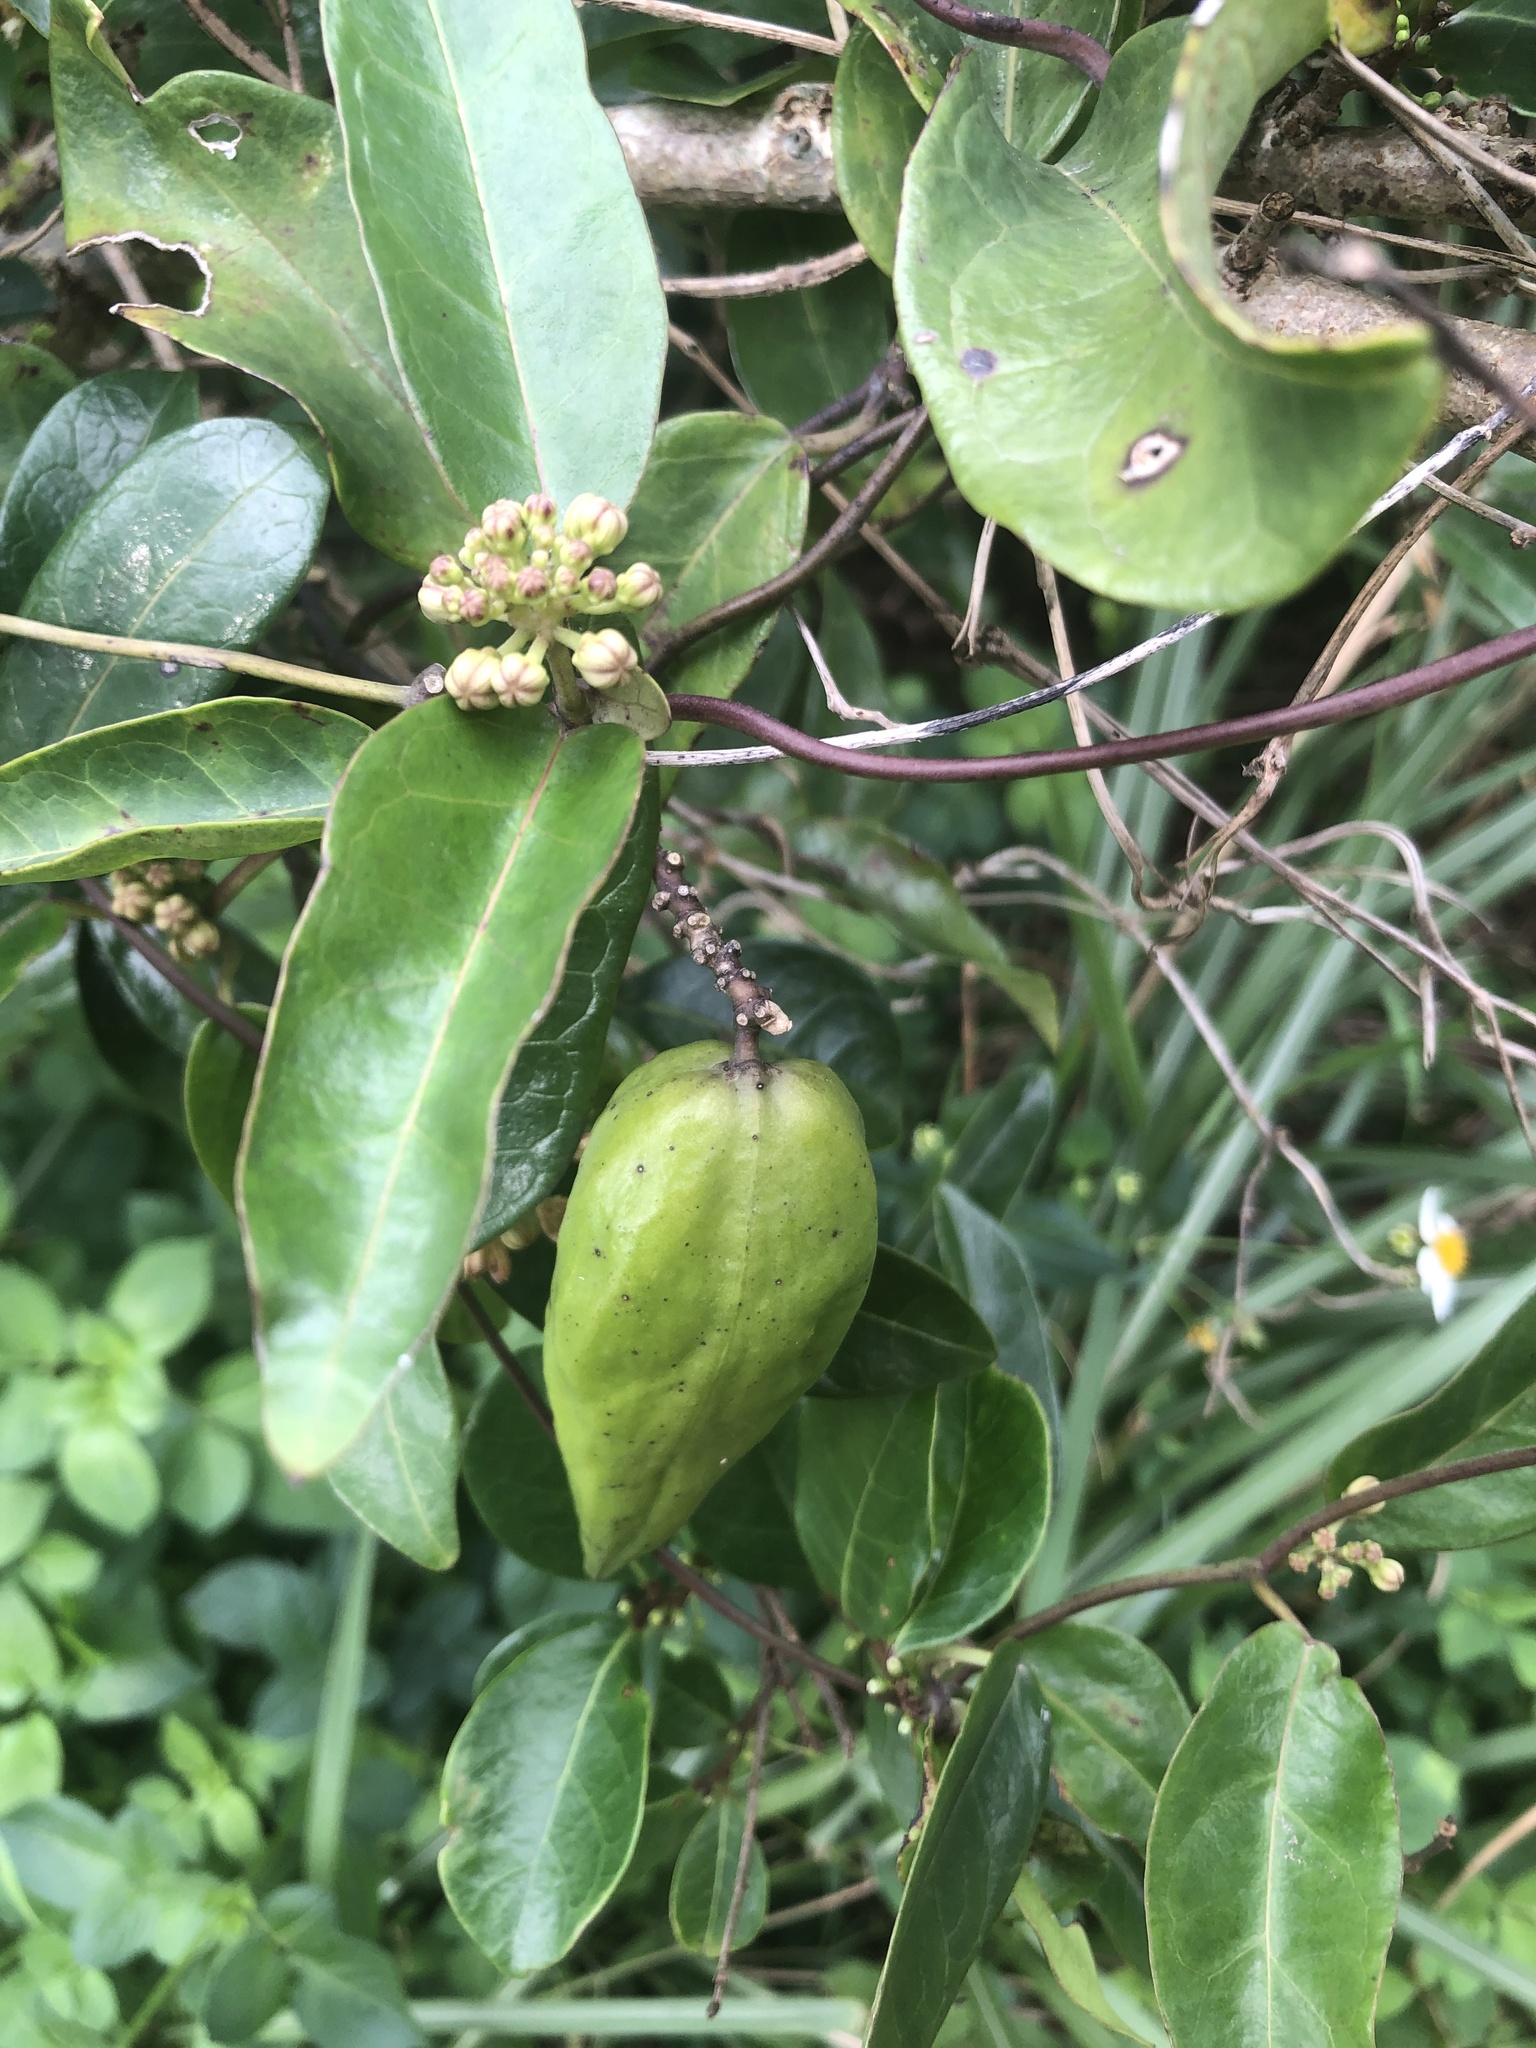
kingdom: Plantae
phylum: Tracheophyta
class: Magnoliopsida
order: Gentianales
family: Apocynaceae
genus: Cynanchum
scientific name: Cynanchum ovalifolium
